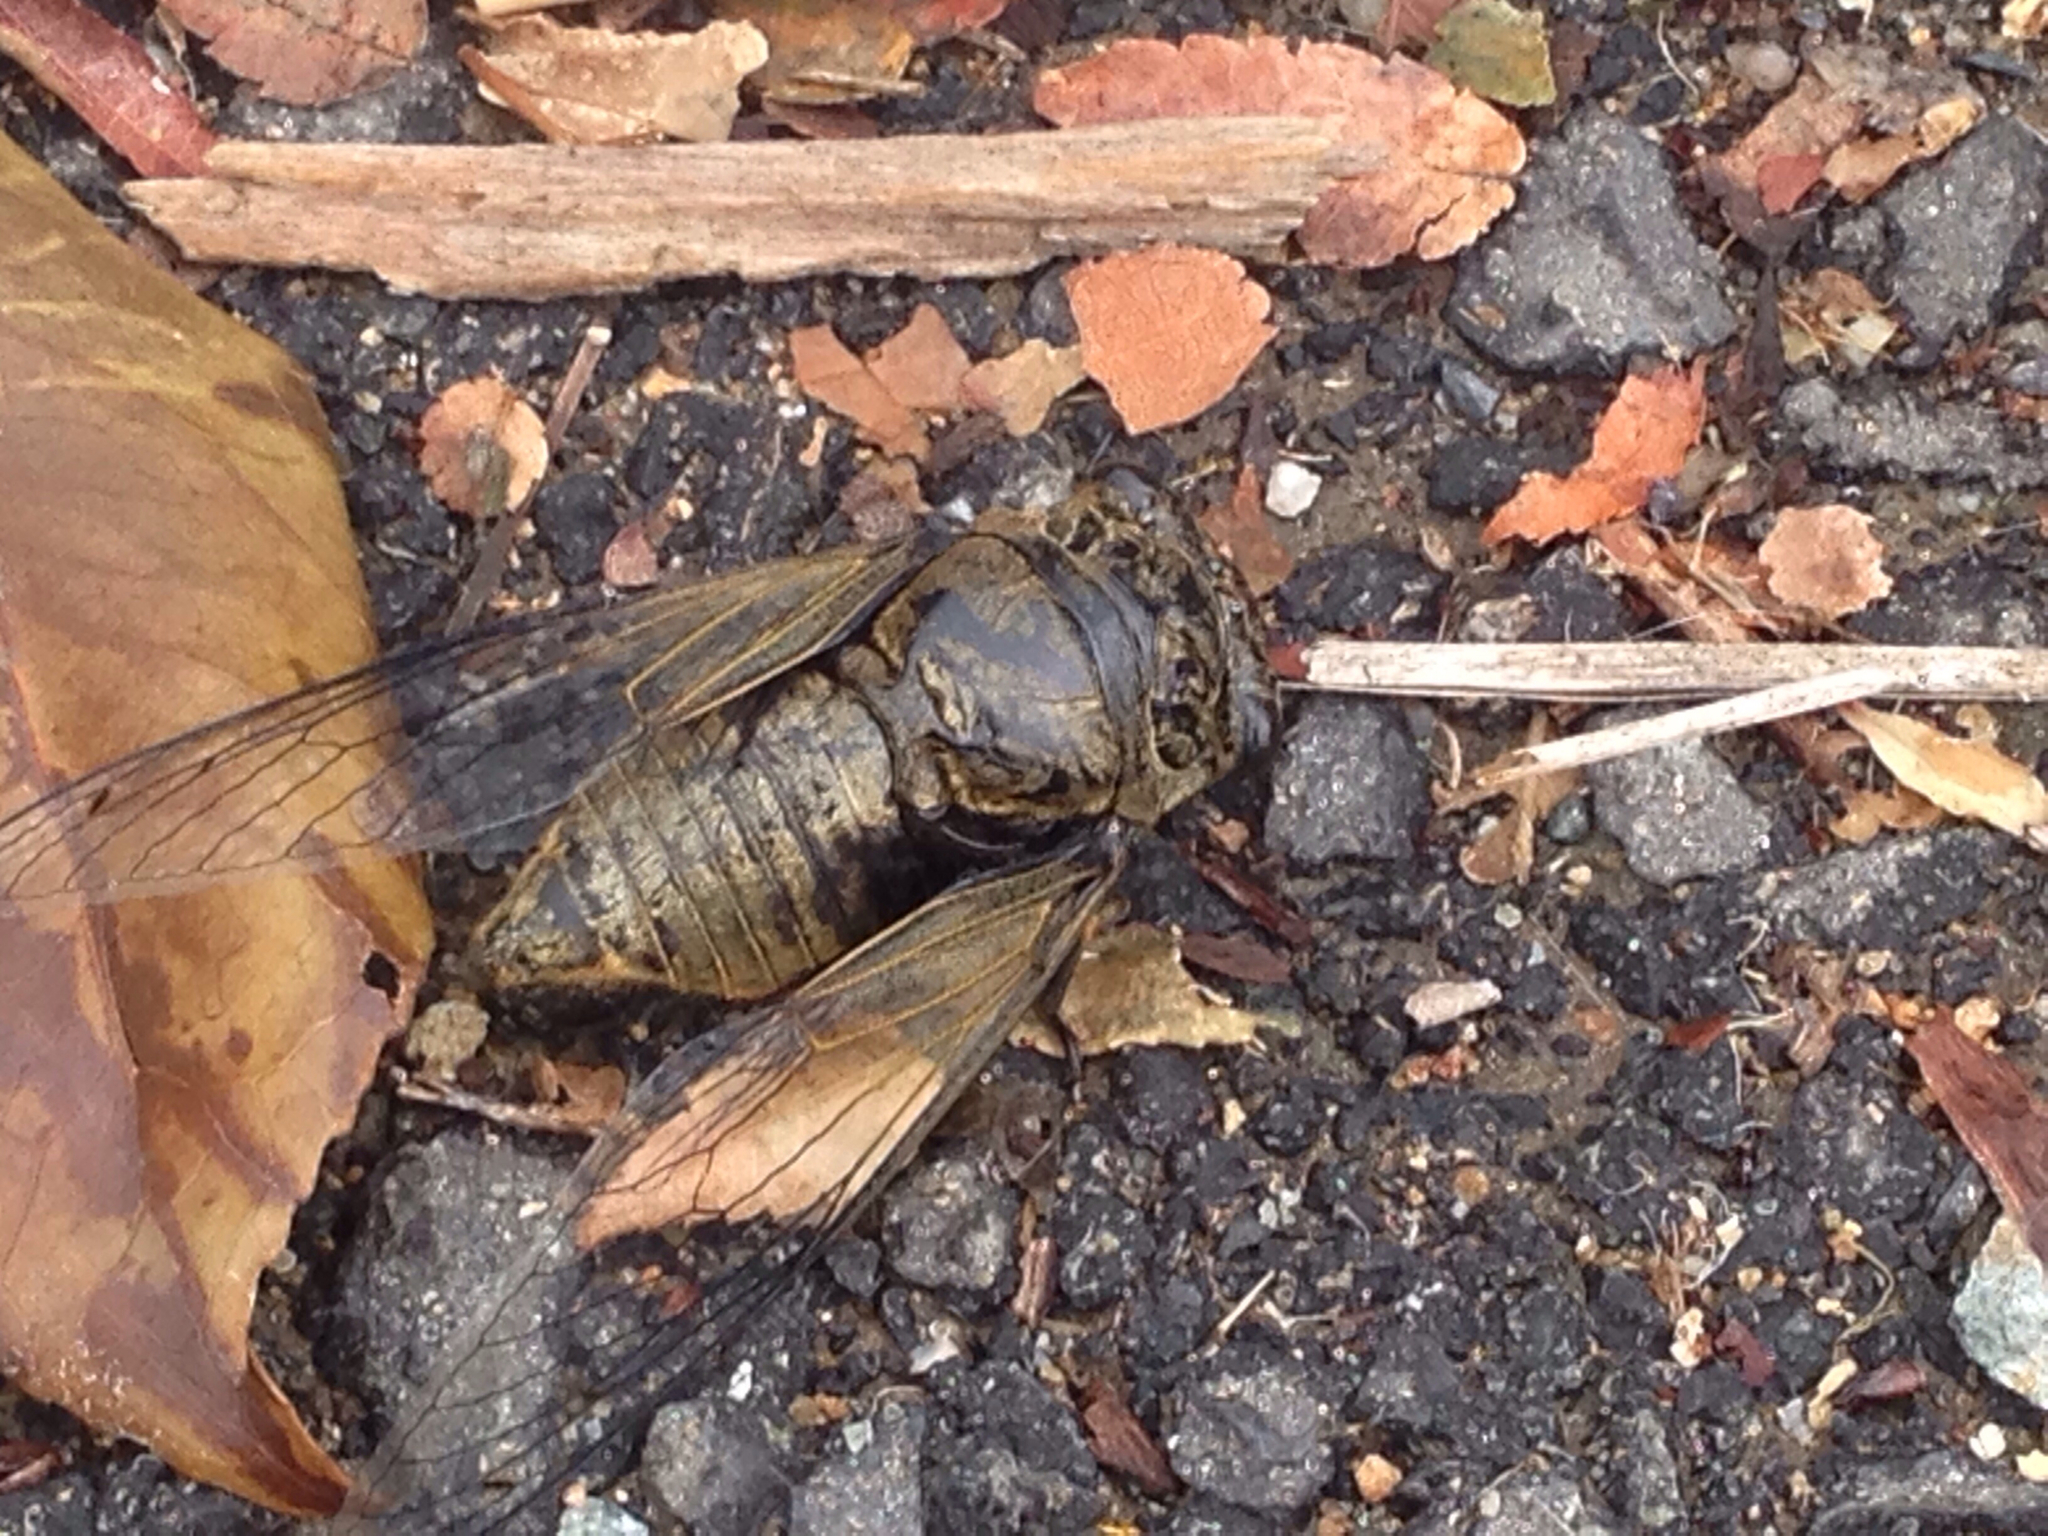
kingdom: Animalia
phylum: Arthropoda
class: Insecta
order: Hemiptera
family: Cicadidae
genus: Cryptotympana
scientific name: Cryptotympana atrata
